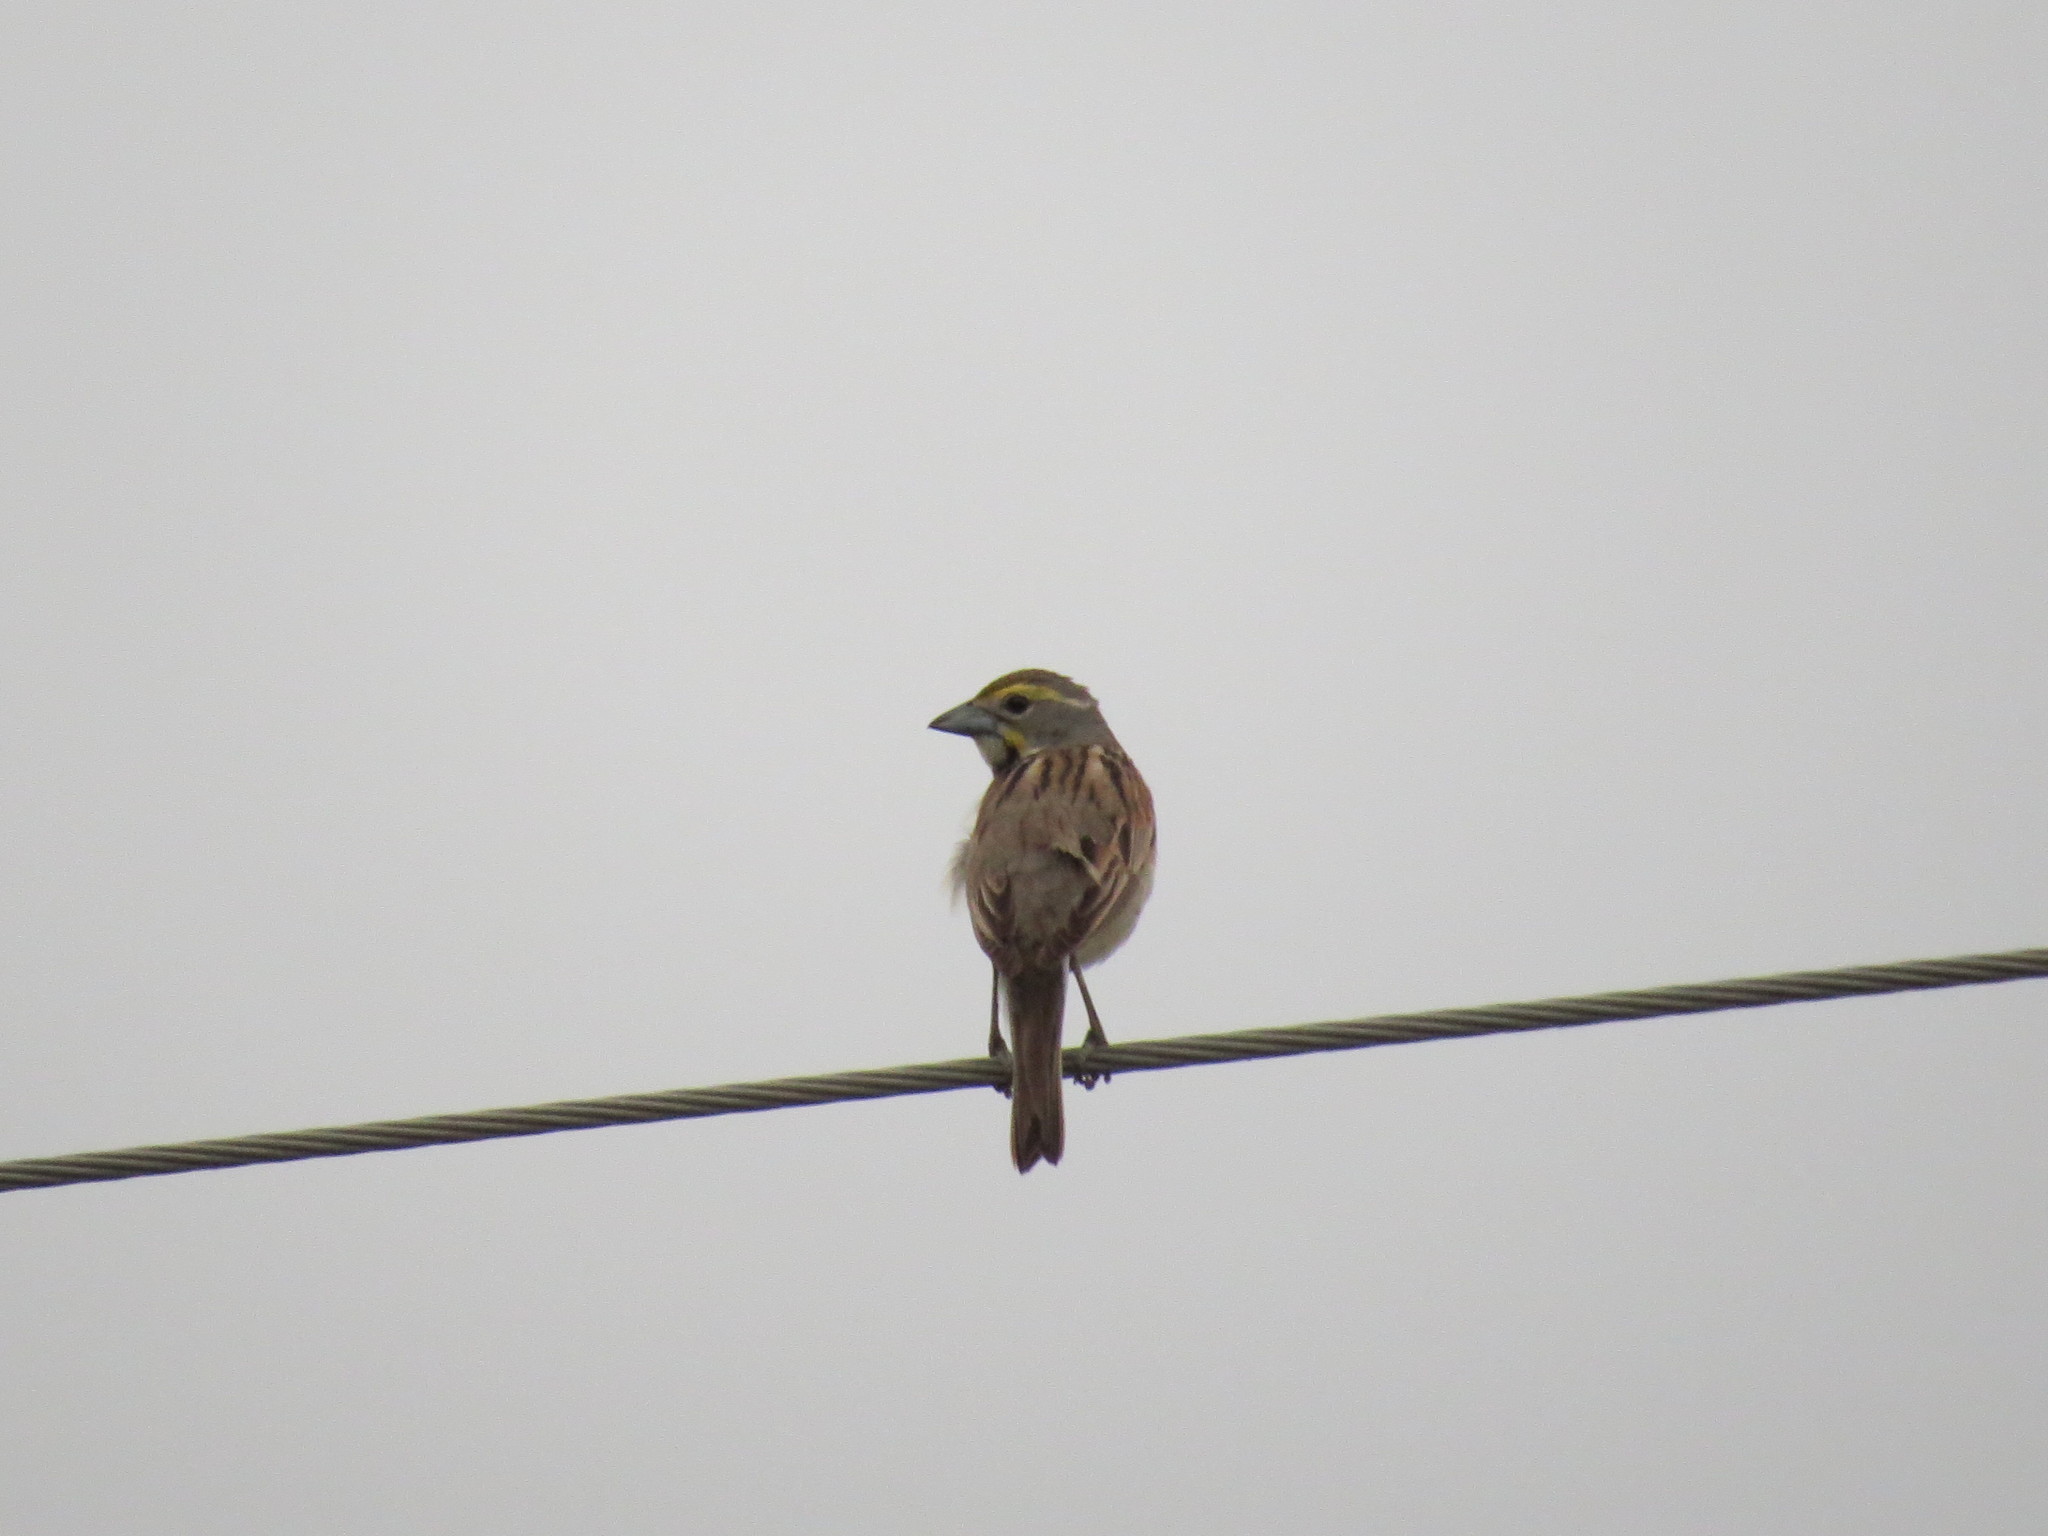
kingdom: Animalia
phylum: Chordata
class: Aves
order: Passeriformes
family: Cardinalidae
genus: Spiza
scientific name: Spiza americana
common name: Dickcissel
